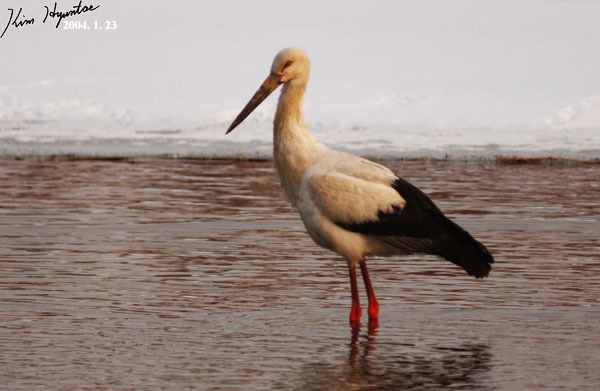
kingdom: Animalia
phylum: Chordata
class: Aves
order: Ciconiiformes
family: Ciconiidae
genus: Ciconia
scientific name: Ciconia boyciana
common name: Oriental stork
